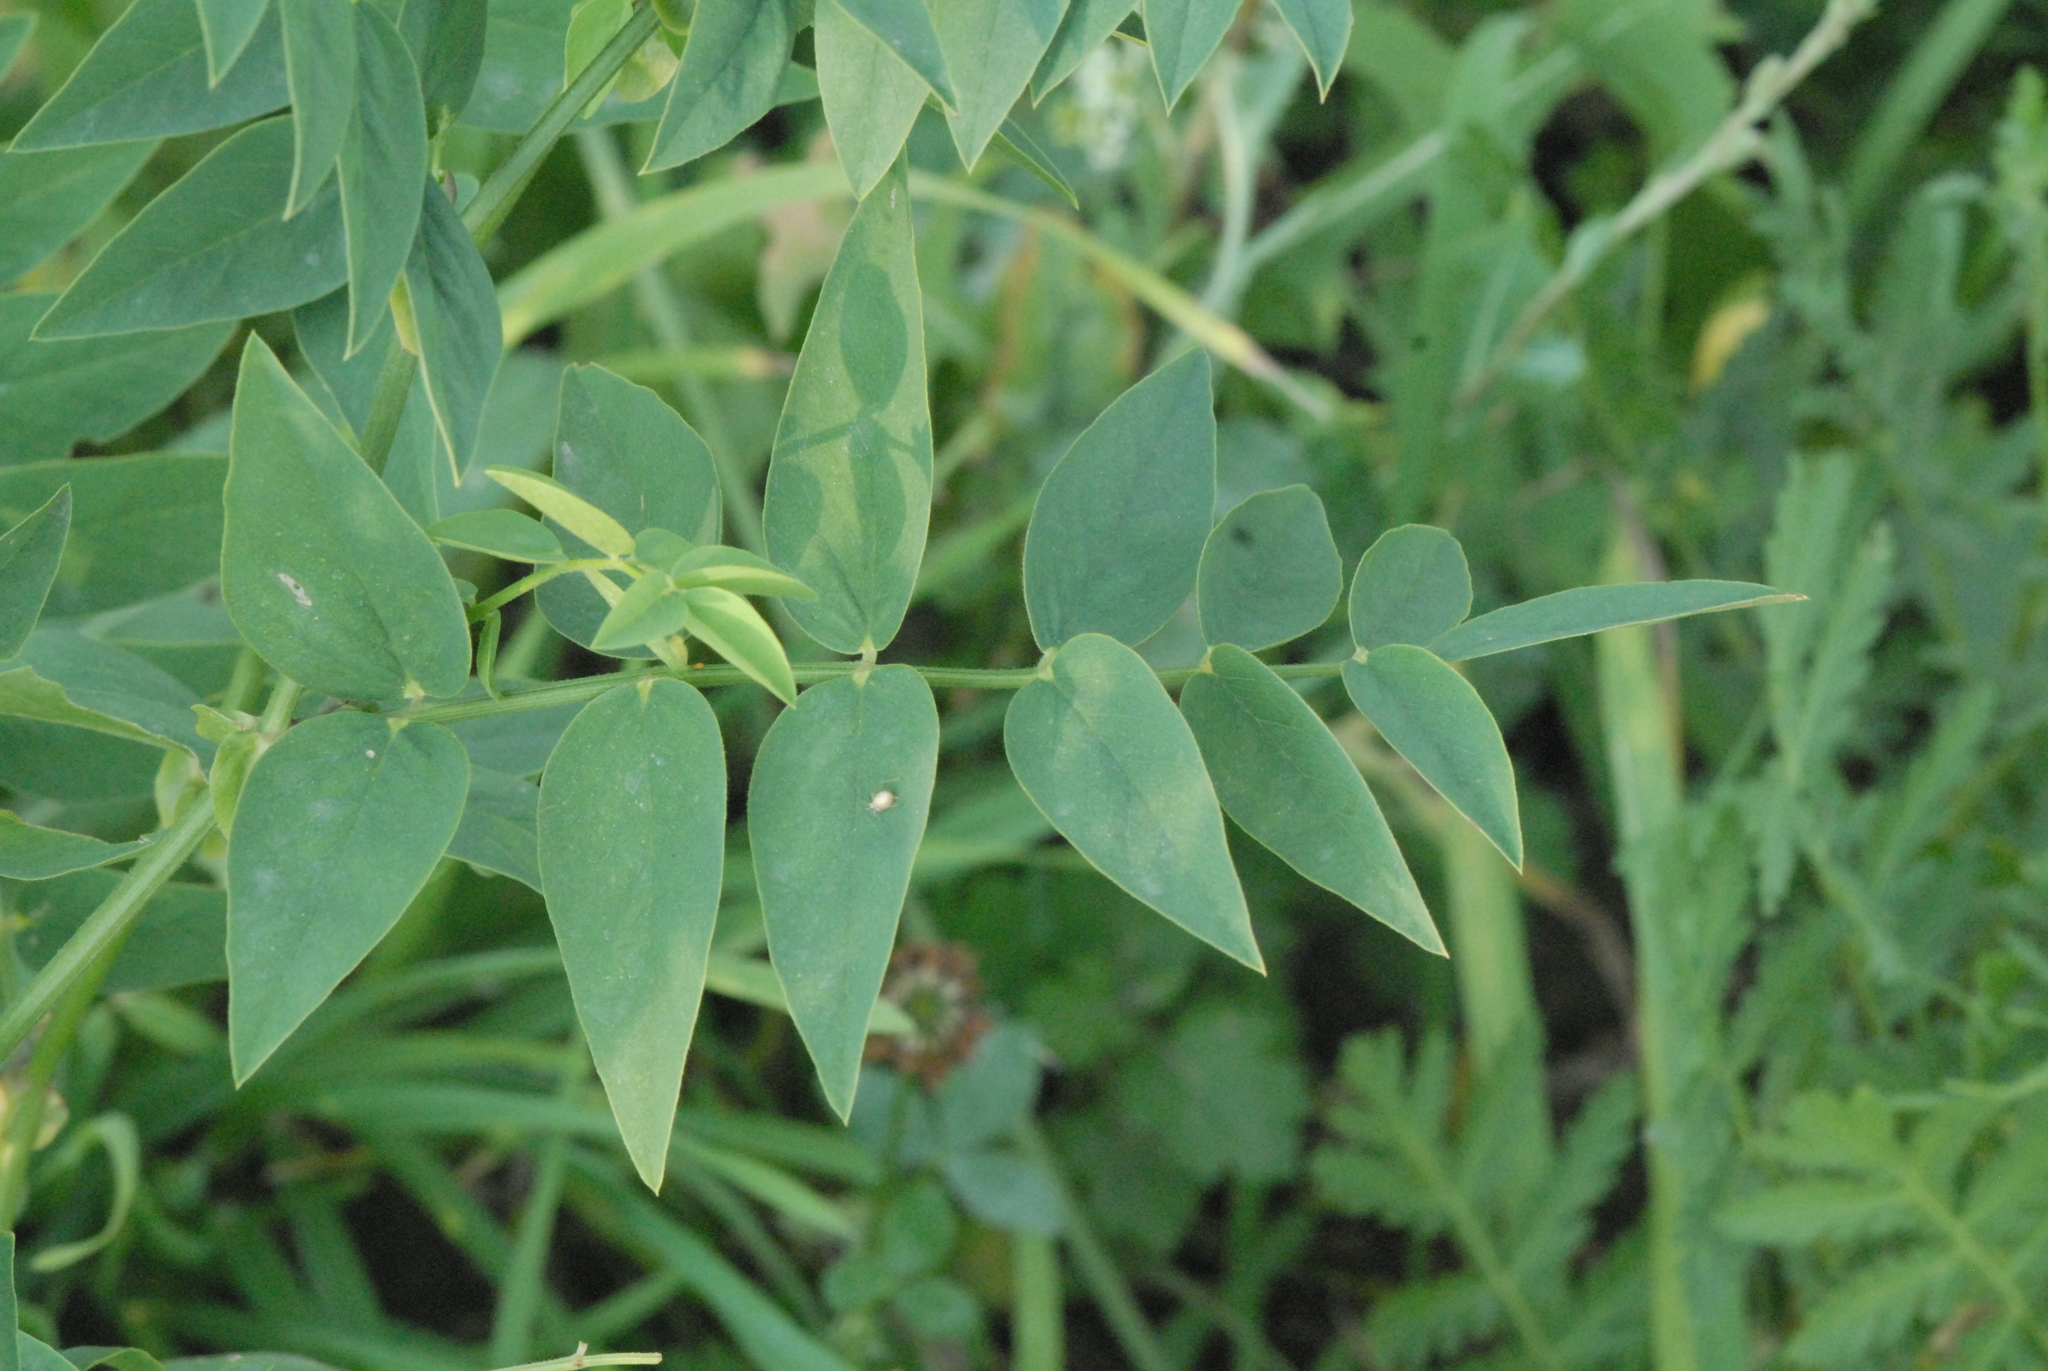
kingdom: Plantae
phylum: Tracheophyta
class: Magnoliopsida
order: Fabales
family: Fabaceae
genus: Galega
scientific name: Galega orientalis
